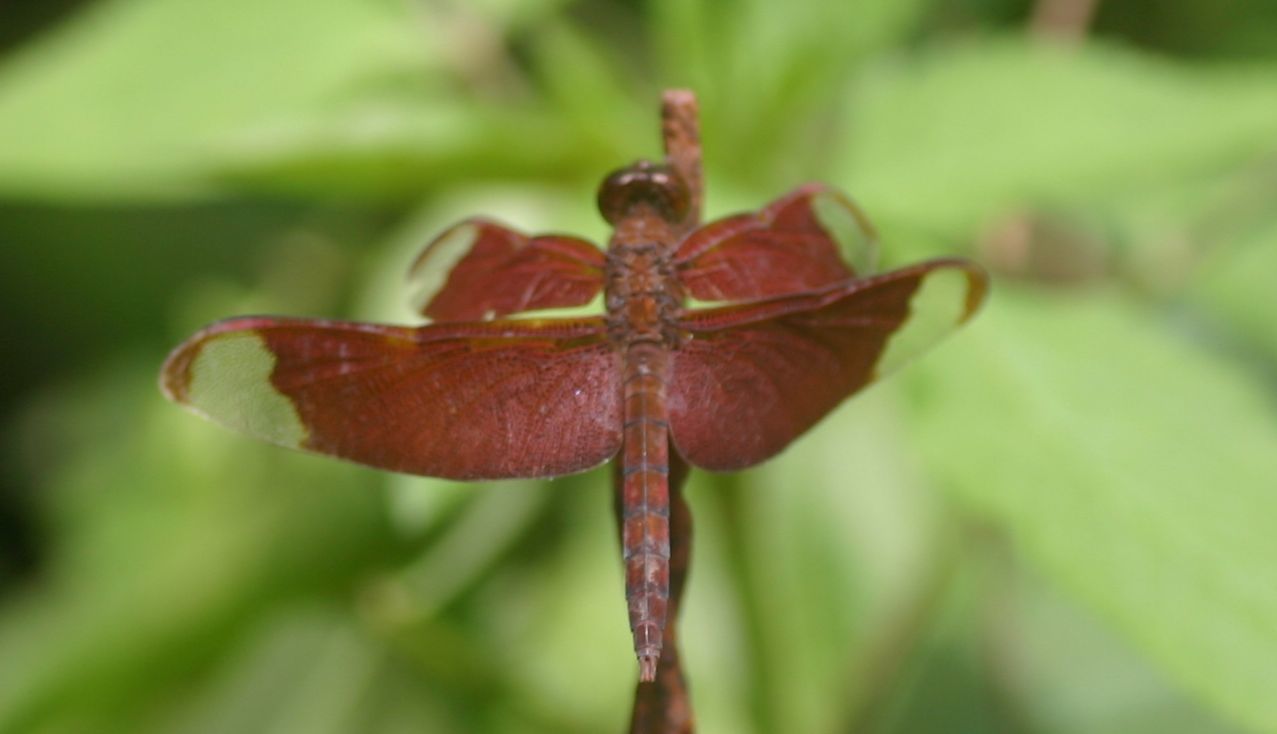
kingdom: Animalia
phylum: Arthropoda
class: Insecta
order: Odonata
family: Libellulidae
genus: Neurothemis
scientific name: Neurothemis fulvia
